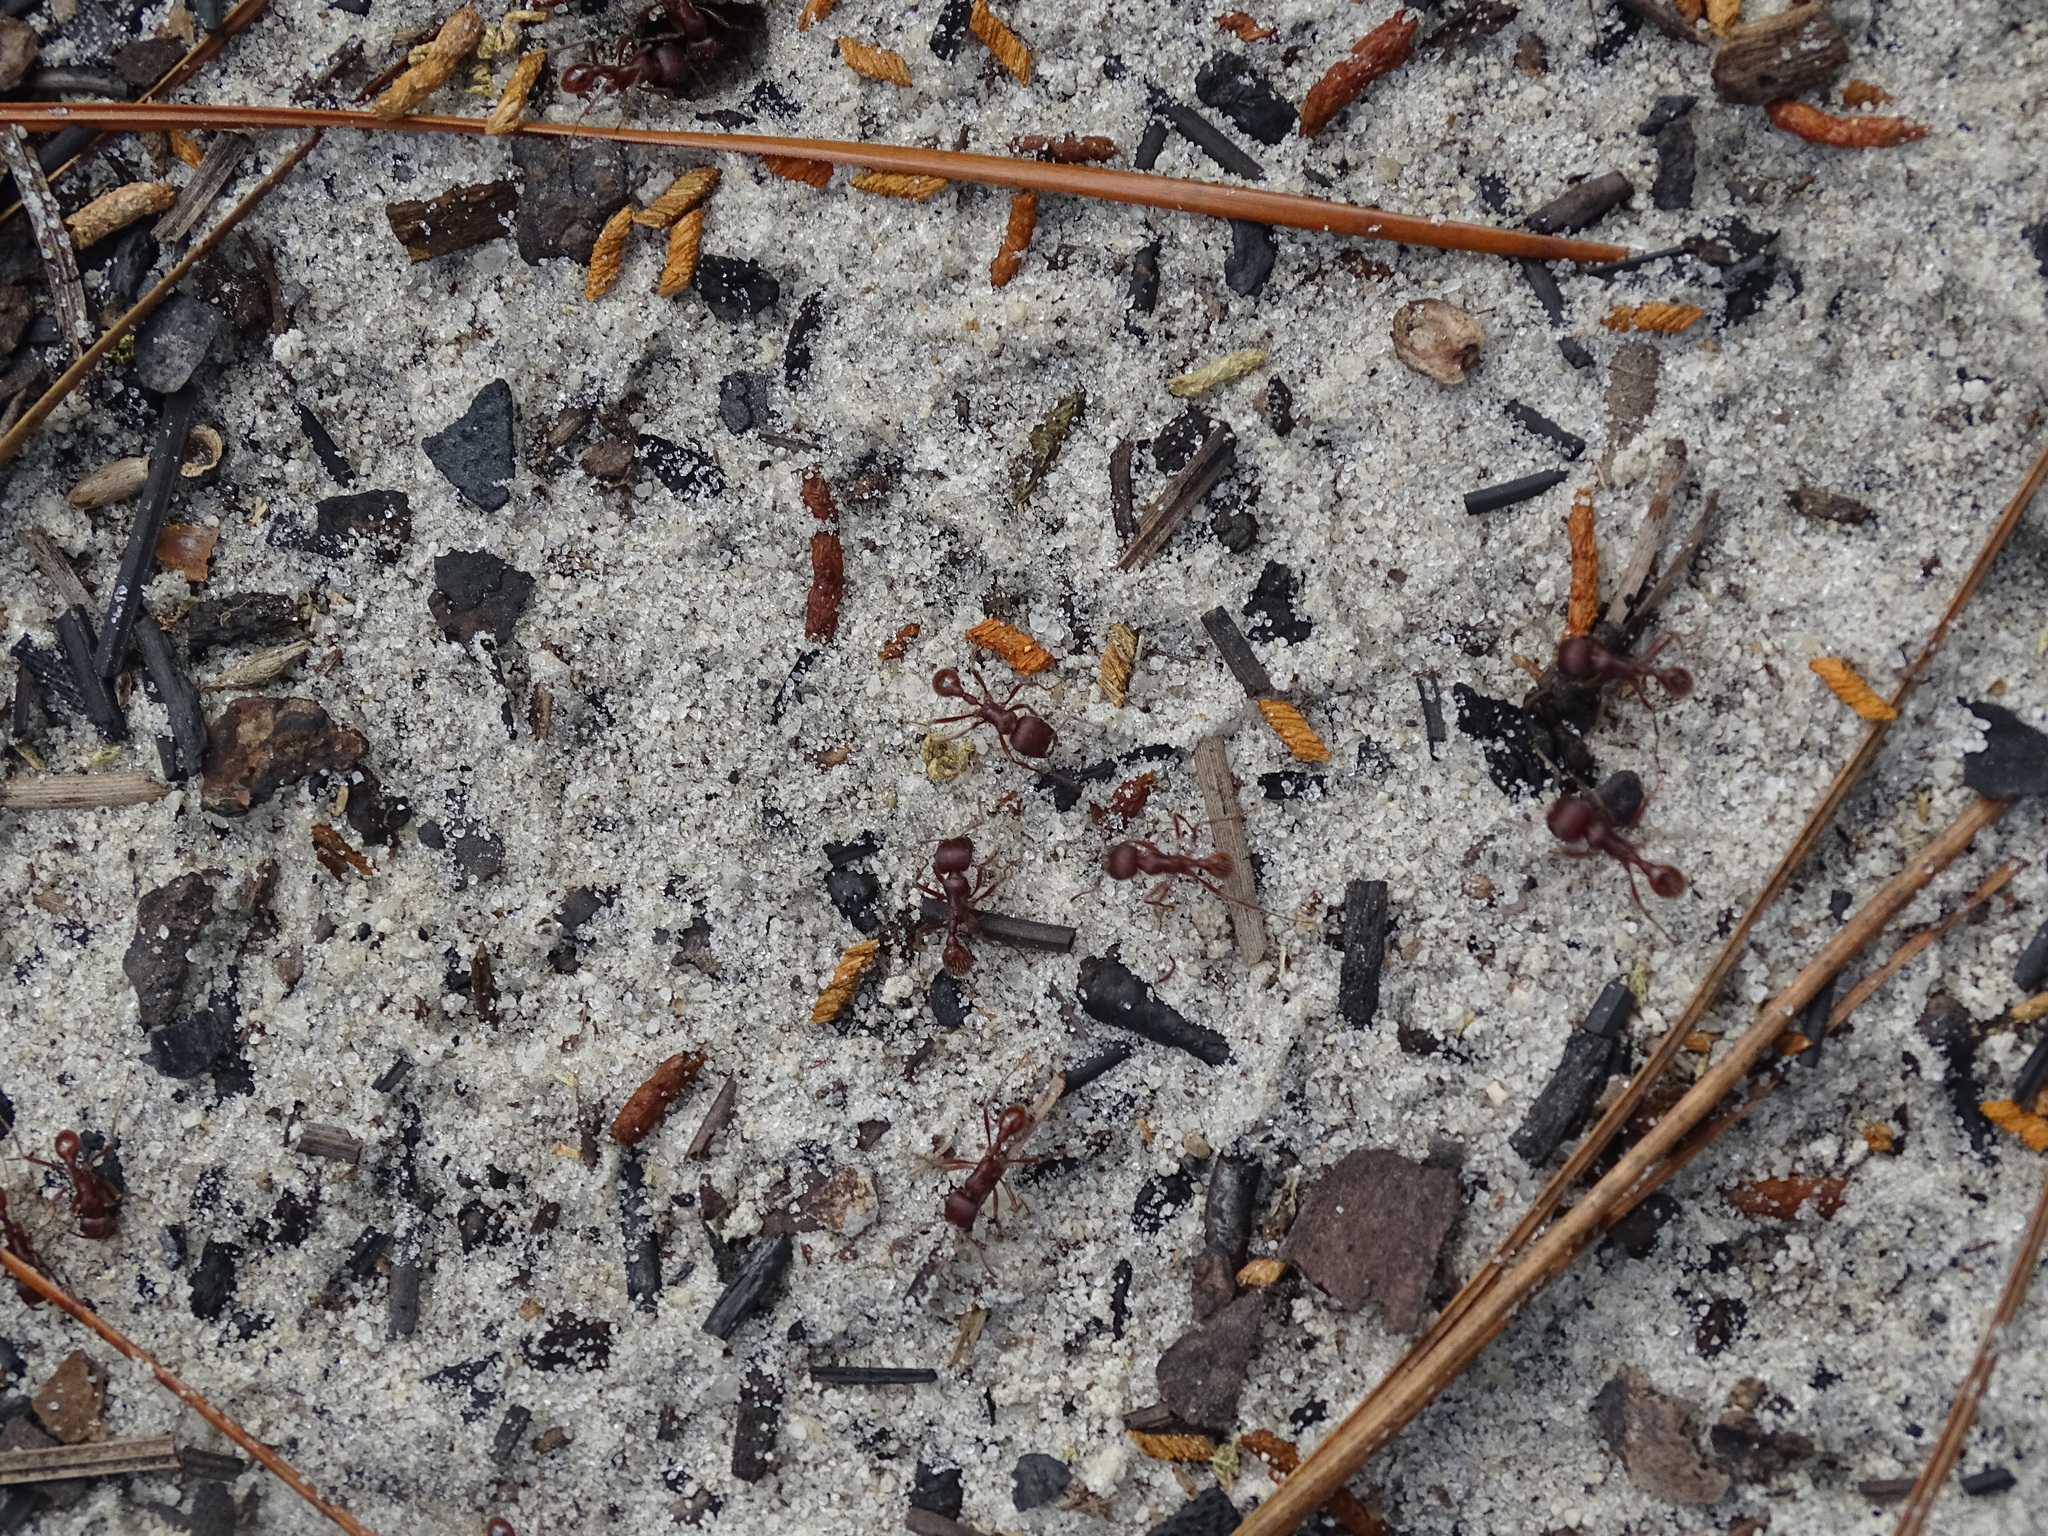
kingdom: Animalia
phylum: Arthropoda
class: Insecta
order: Hymenoptera
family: Formicidae
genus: Pogonomyrmex
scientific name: Pogonomyrmex badius
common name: Florida harvester ant
